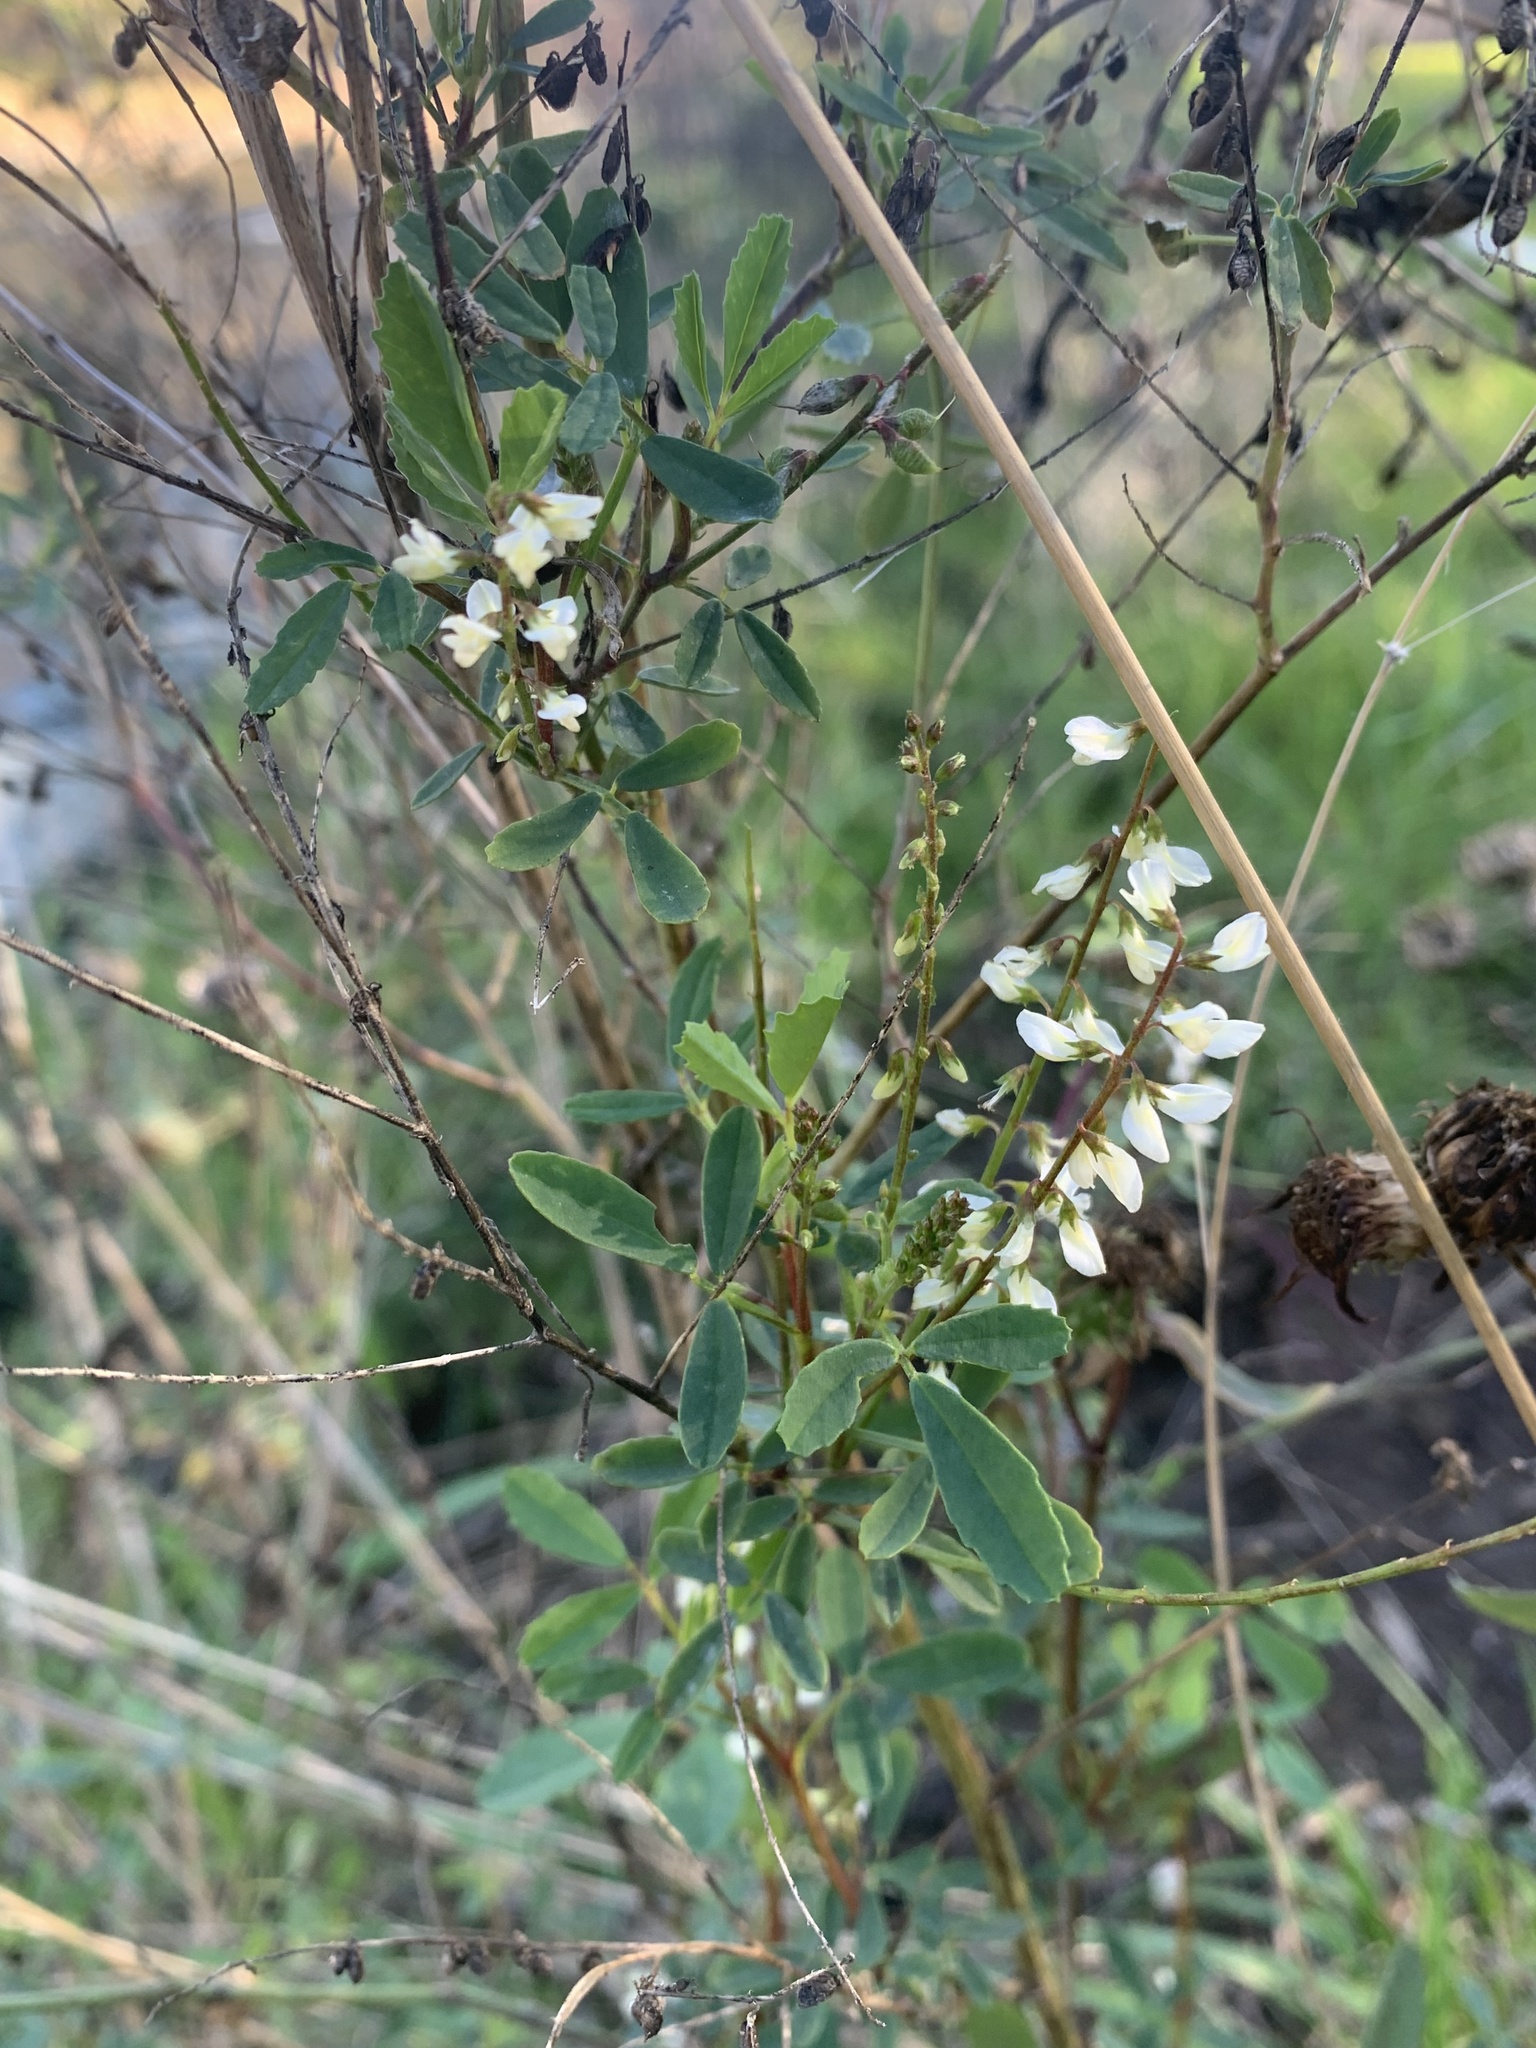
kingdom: Plantae
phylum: Tracheophyta
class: Magnoliopsida
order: Fabales
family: Fabaceae
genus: Melilotus
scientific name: Melilotus albus
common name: White melilot
